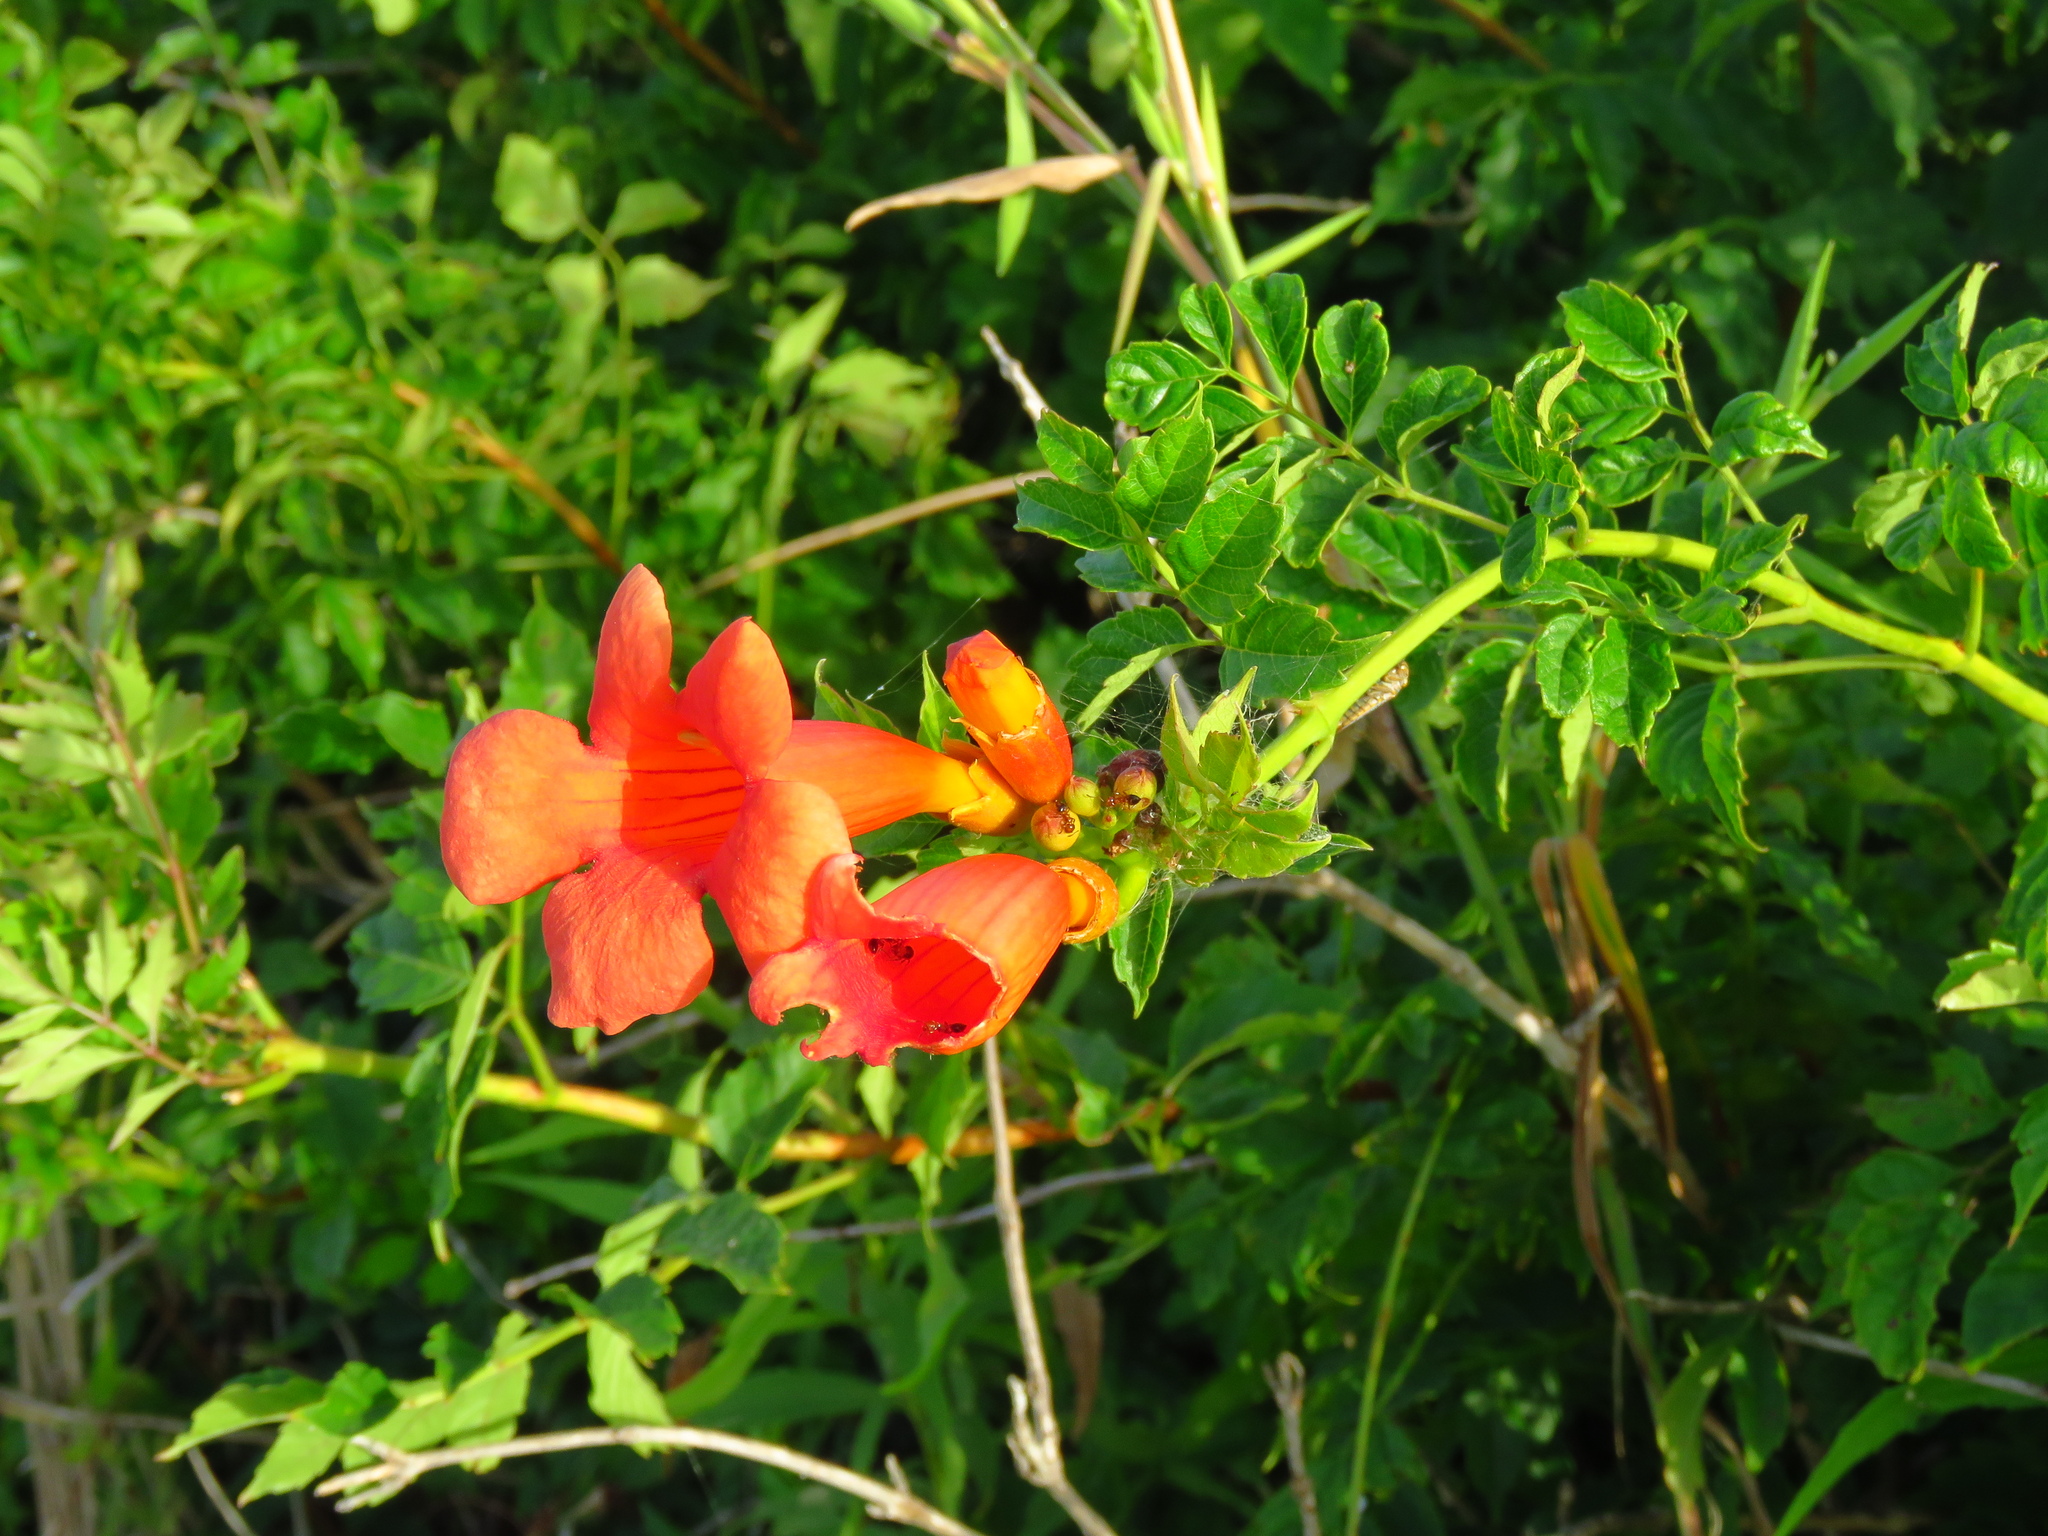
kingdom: Plantae
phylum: Tracheophyta
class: Magnoliopsida
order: Lamiales
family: Bignoniaceae
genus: Campsis
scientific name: Campsis radicans
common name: Trumpet-creeper
